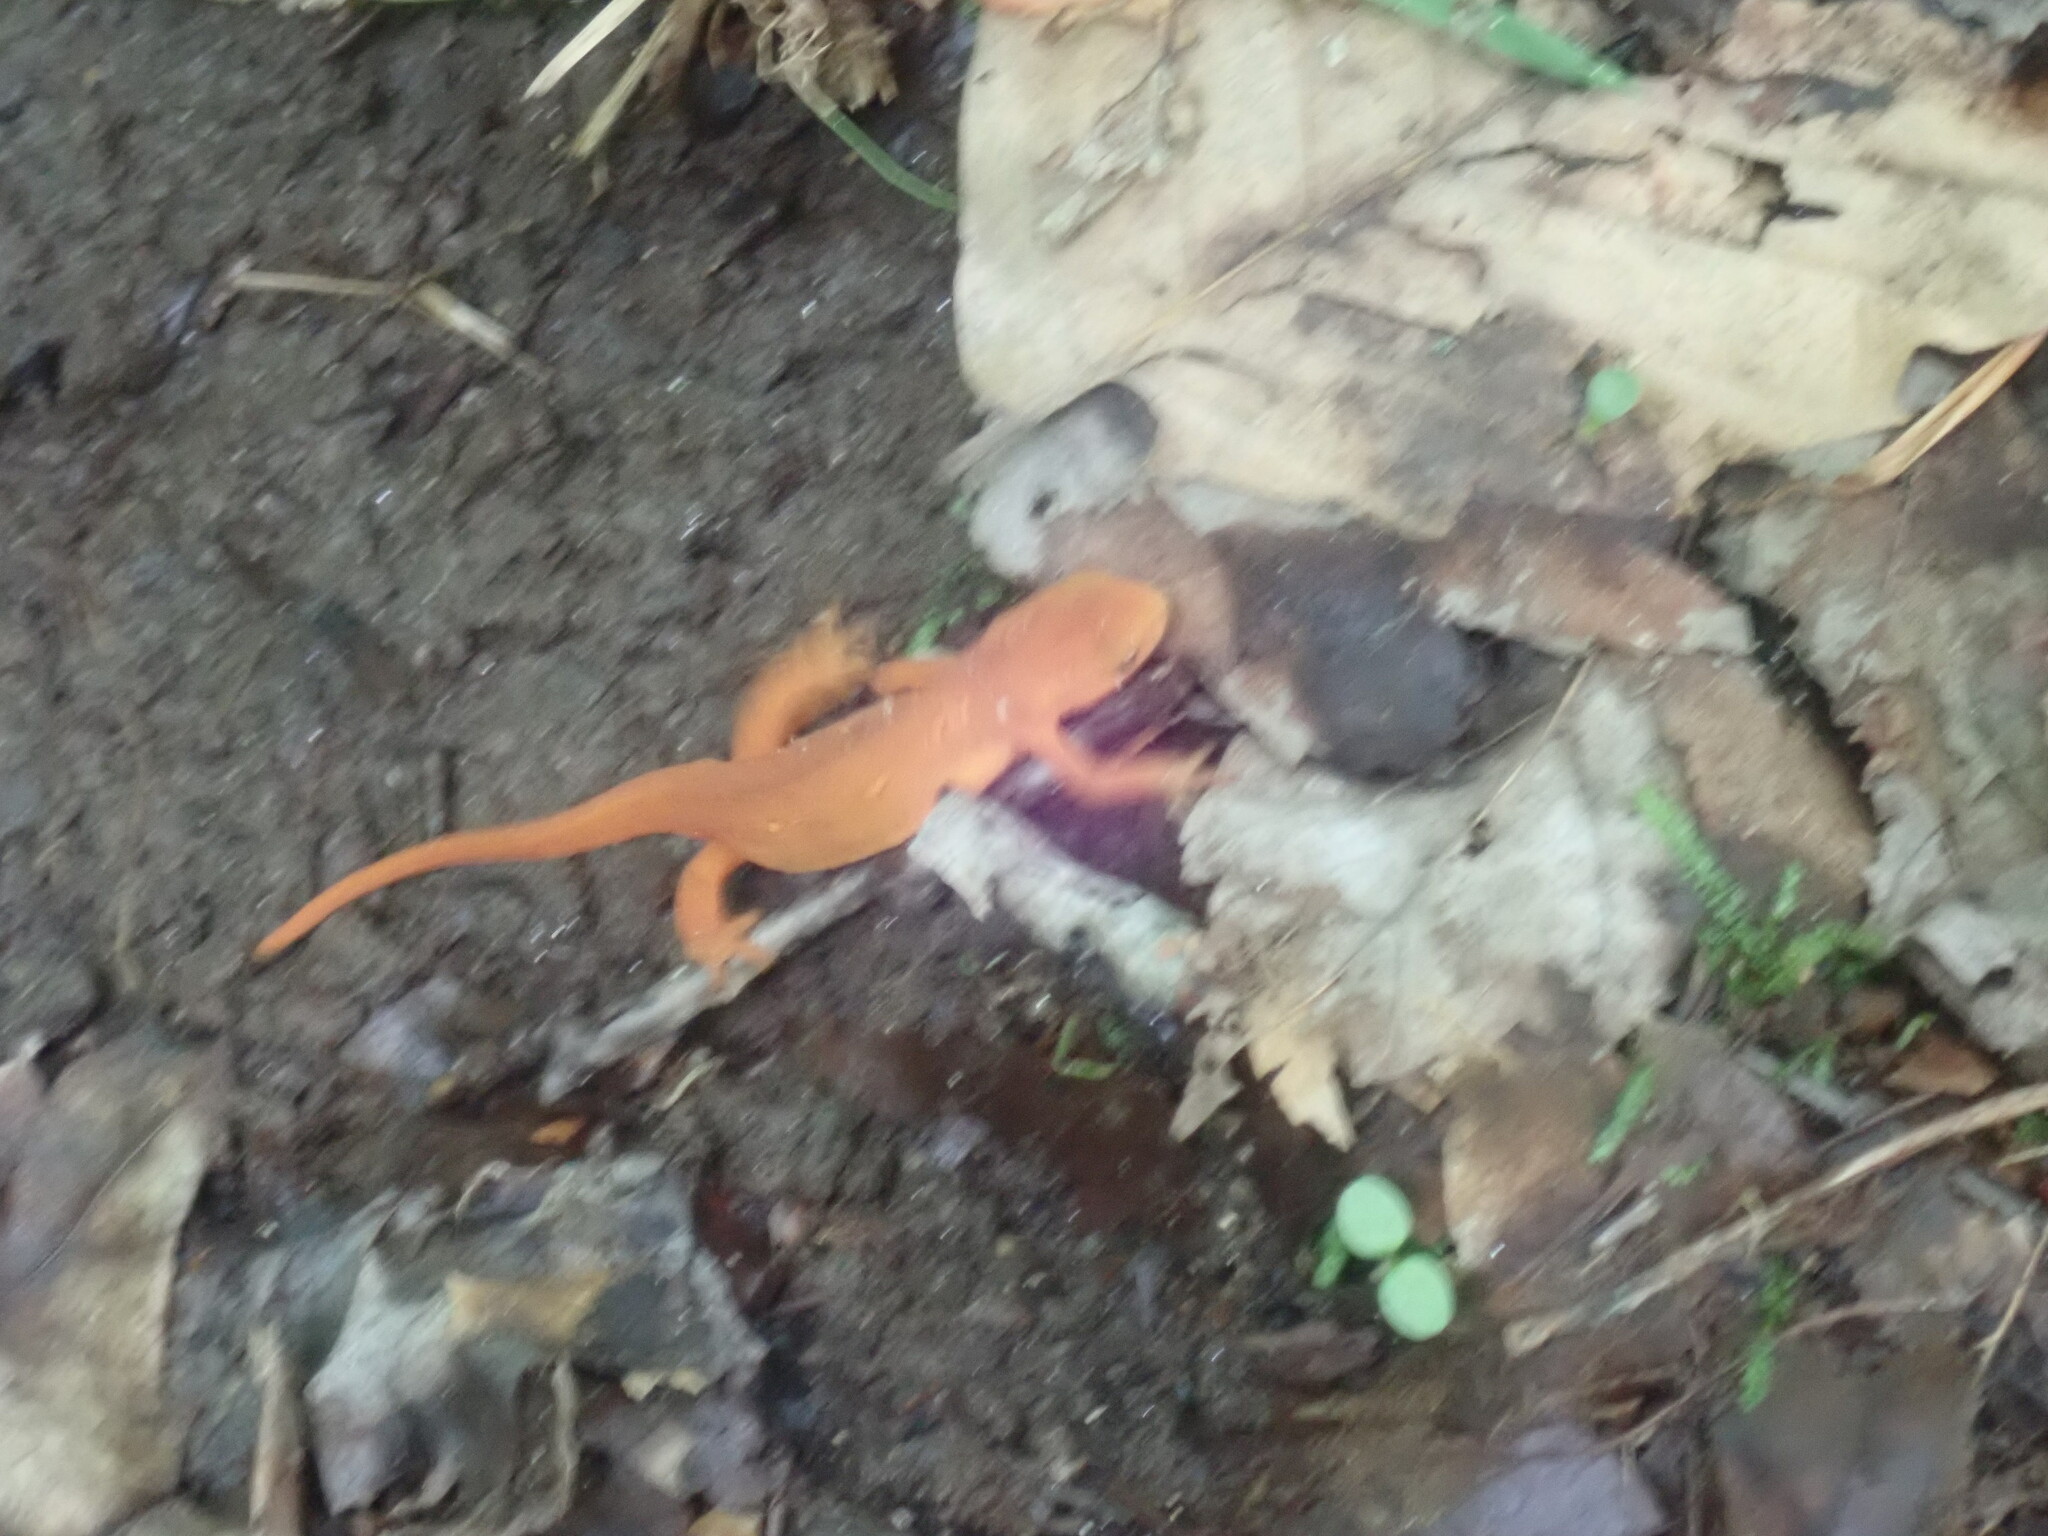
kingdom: Animalia
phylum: Chordata
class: Amphibia
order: Caudata
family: Salamandridae
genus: Notophthalmus
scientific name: Notophthalmus viridescens
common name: Eastern newt
